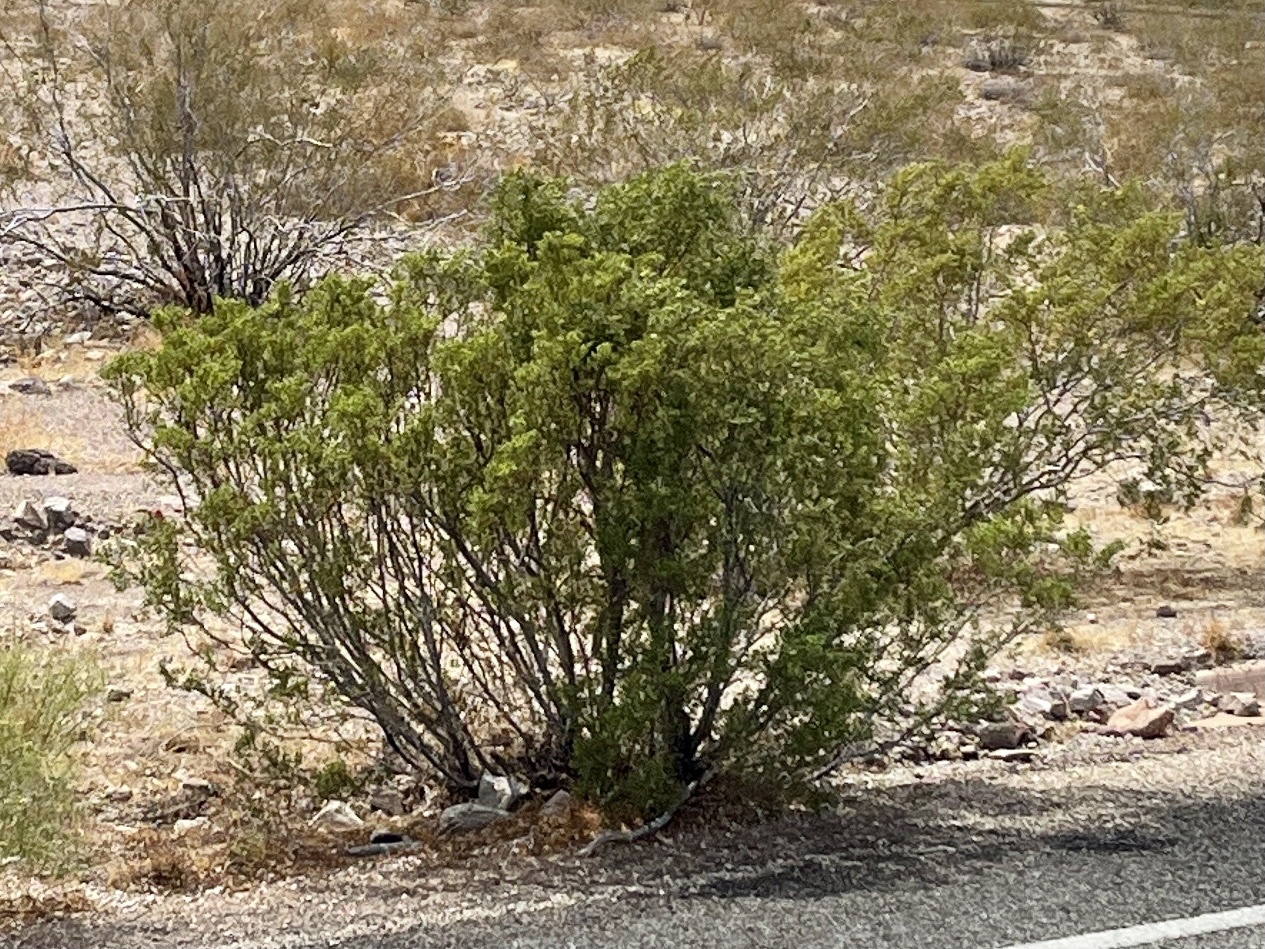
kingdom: Plantae
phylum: Tracheophyta
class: Magnoliopsida
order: Zygophyllales
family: Zygophyllaceae
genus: Larrea
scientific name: Larrea tridentata
